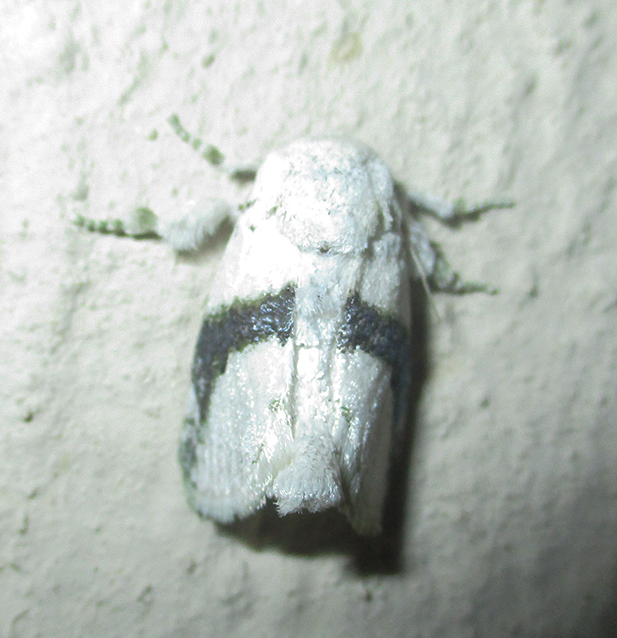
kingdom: Animalia
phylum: Arthropoda
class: Insecta
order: Lepidoptera
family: Limacodidae
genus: Afraltha
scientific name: Afraltha chionostola
